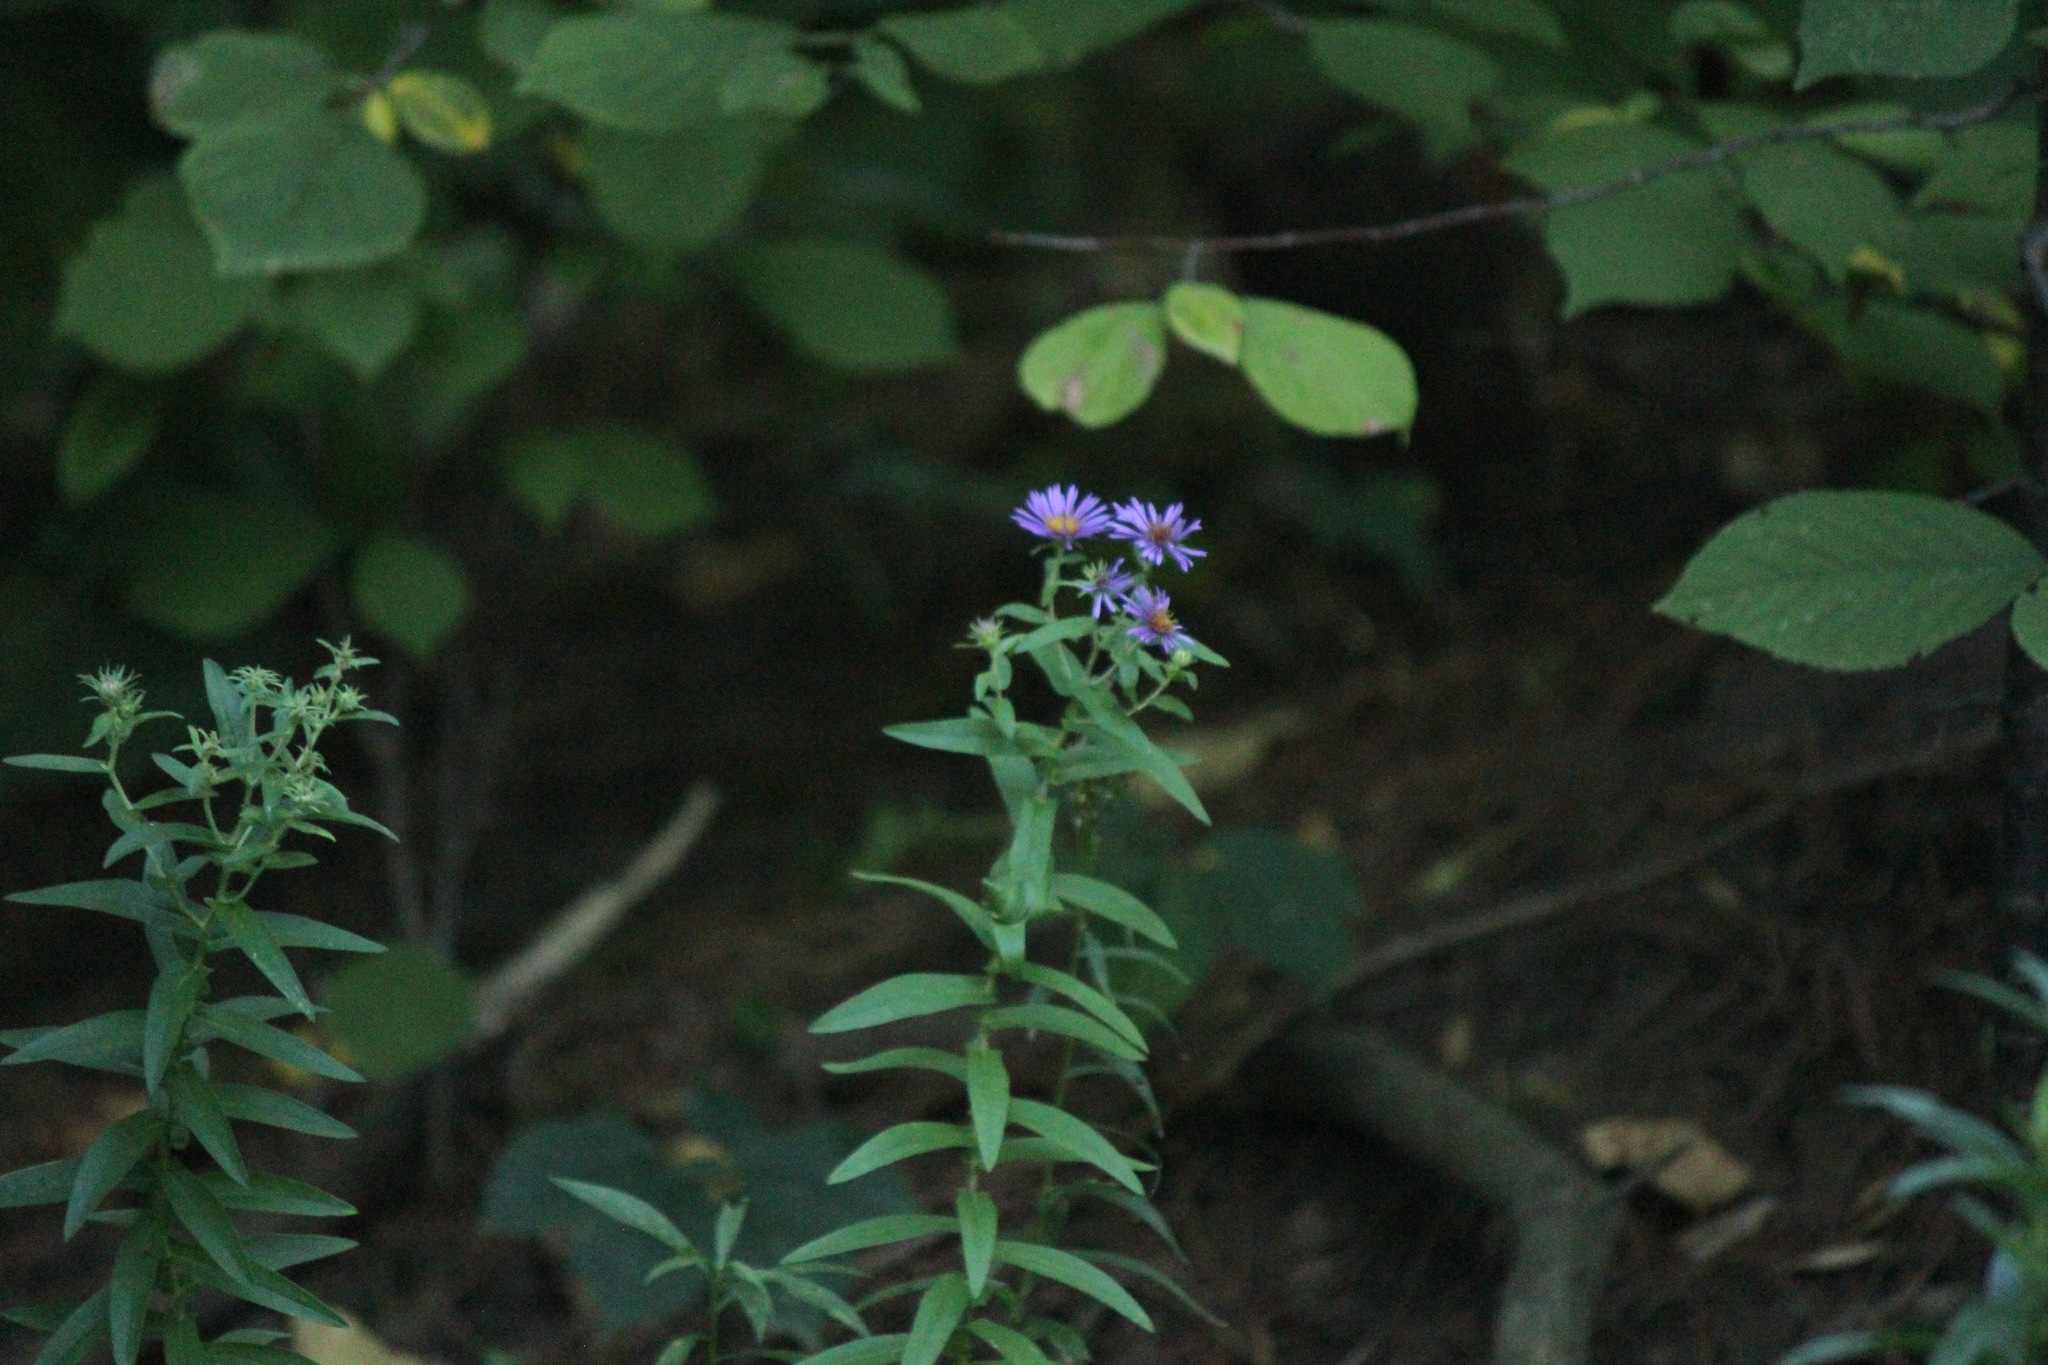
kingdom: Plantae
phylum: Tracheophyta
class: Magnoliopsida
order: Asterales
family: Asteraceae
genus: Symphyotrichum
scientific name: Symphyotrichum novae-angliae
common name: Michaelmas daisy
